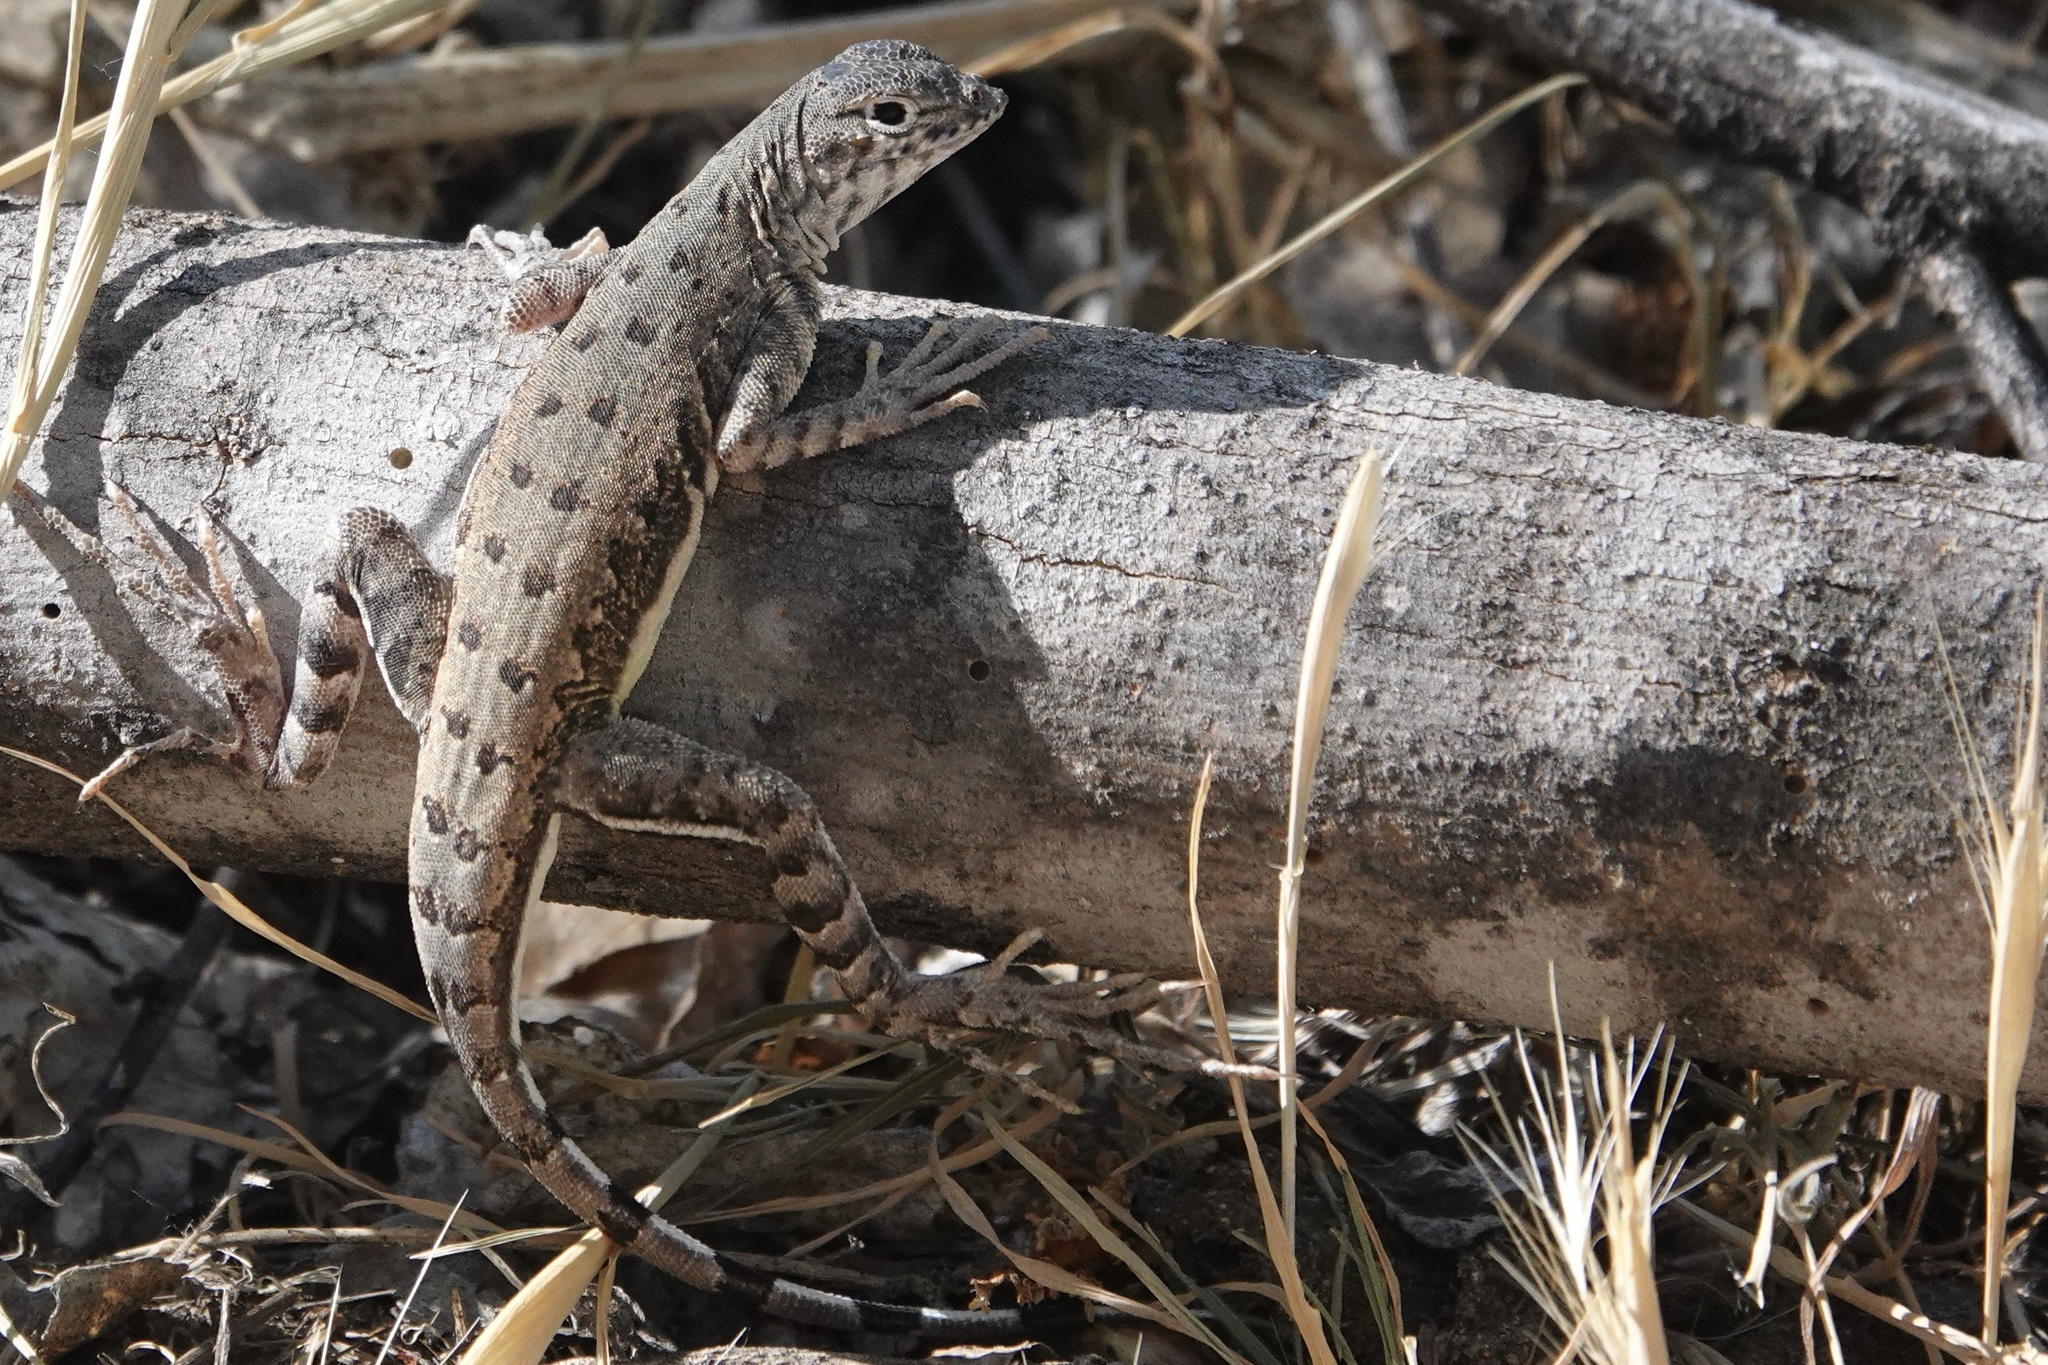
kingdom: Animalia
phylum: Chordata
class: Squamata
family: Phrynosomatidae
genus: Callisaurus
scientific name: Callisaurus draconoides
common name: Zebra-tailed lizard
